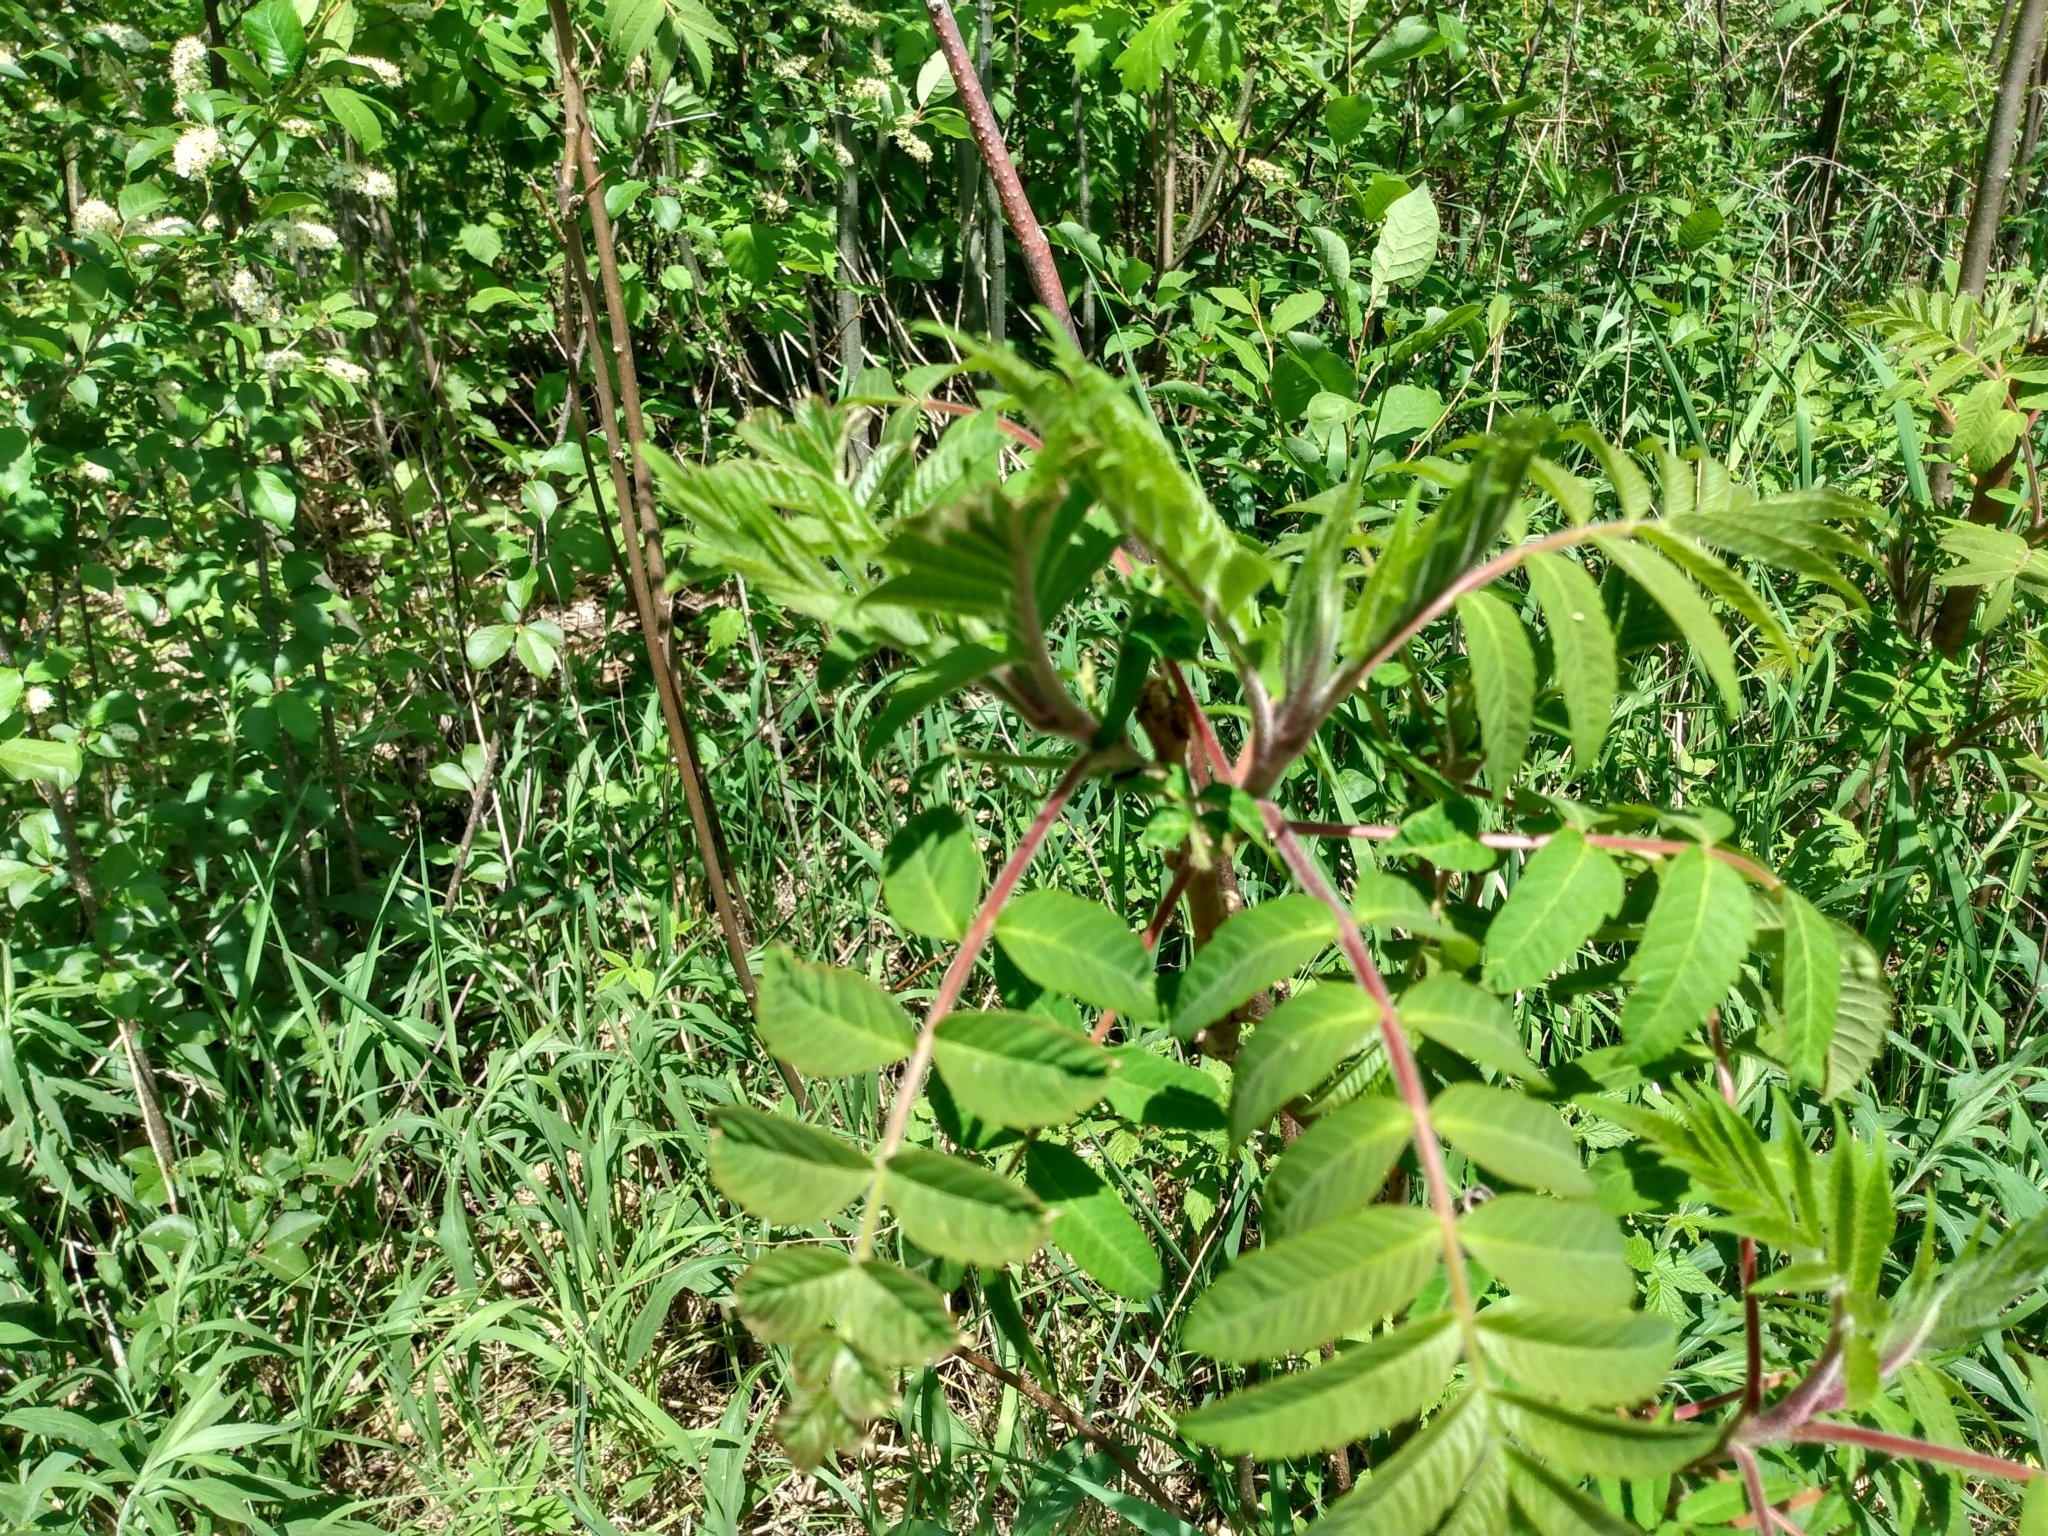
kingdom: Plantae
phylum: Tracheophyta
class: Magnoliopsida
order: Sapindales
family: Anacardiaceae
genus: Rhus
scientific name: Rhus typhina
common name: Staghorn sumac
